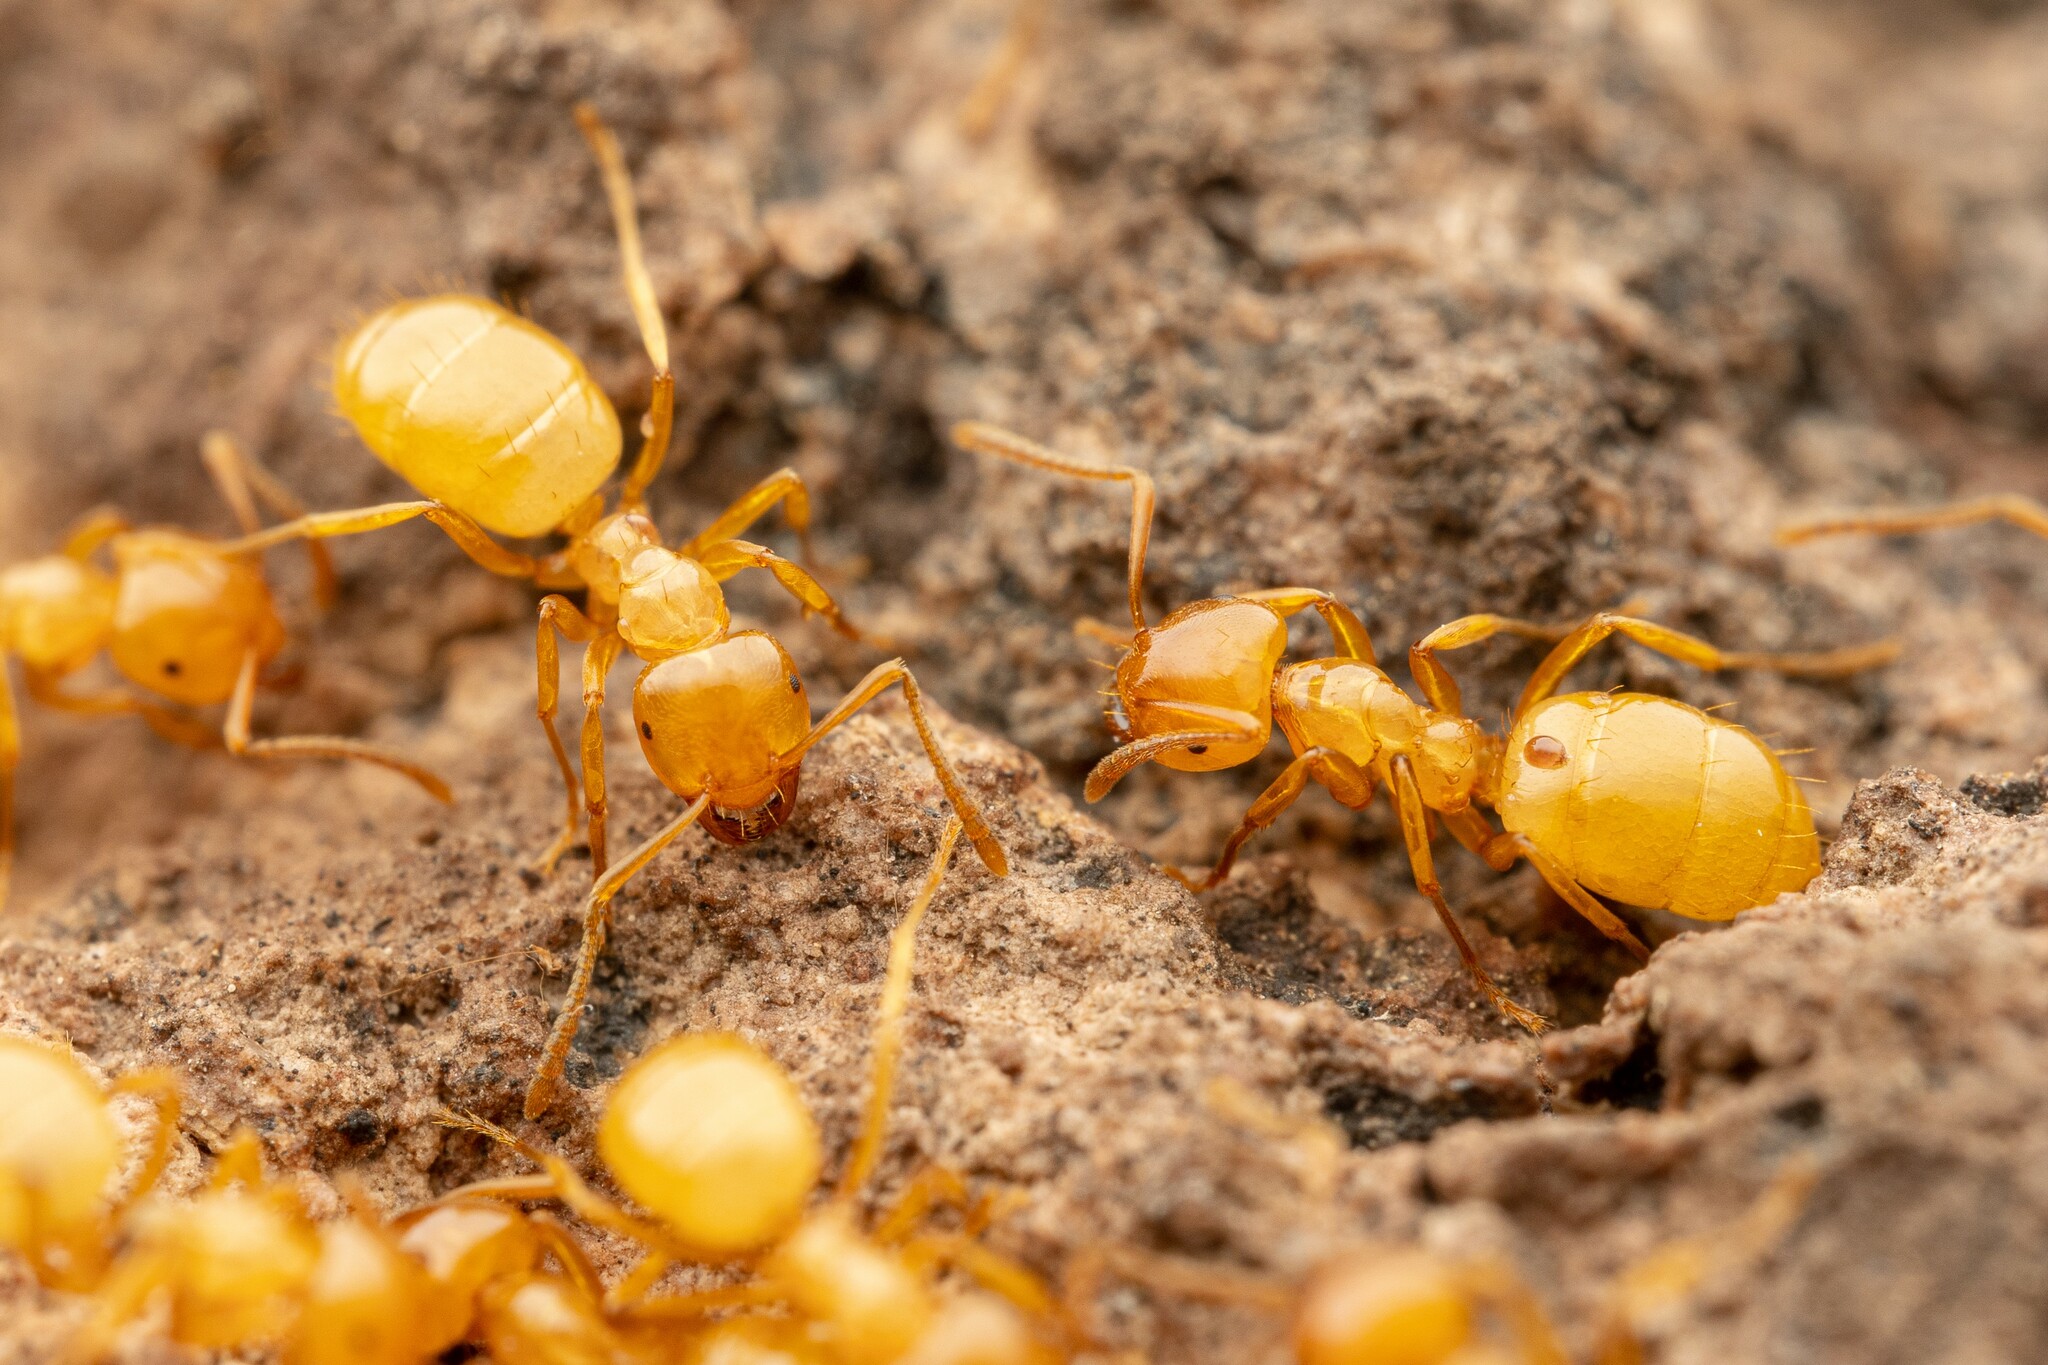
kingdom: Animalia
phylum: Arthropoda
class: Insecta
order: Hymenoptera
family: Formicidae
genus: Lasius
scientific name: Lasius arizonicus
